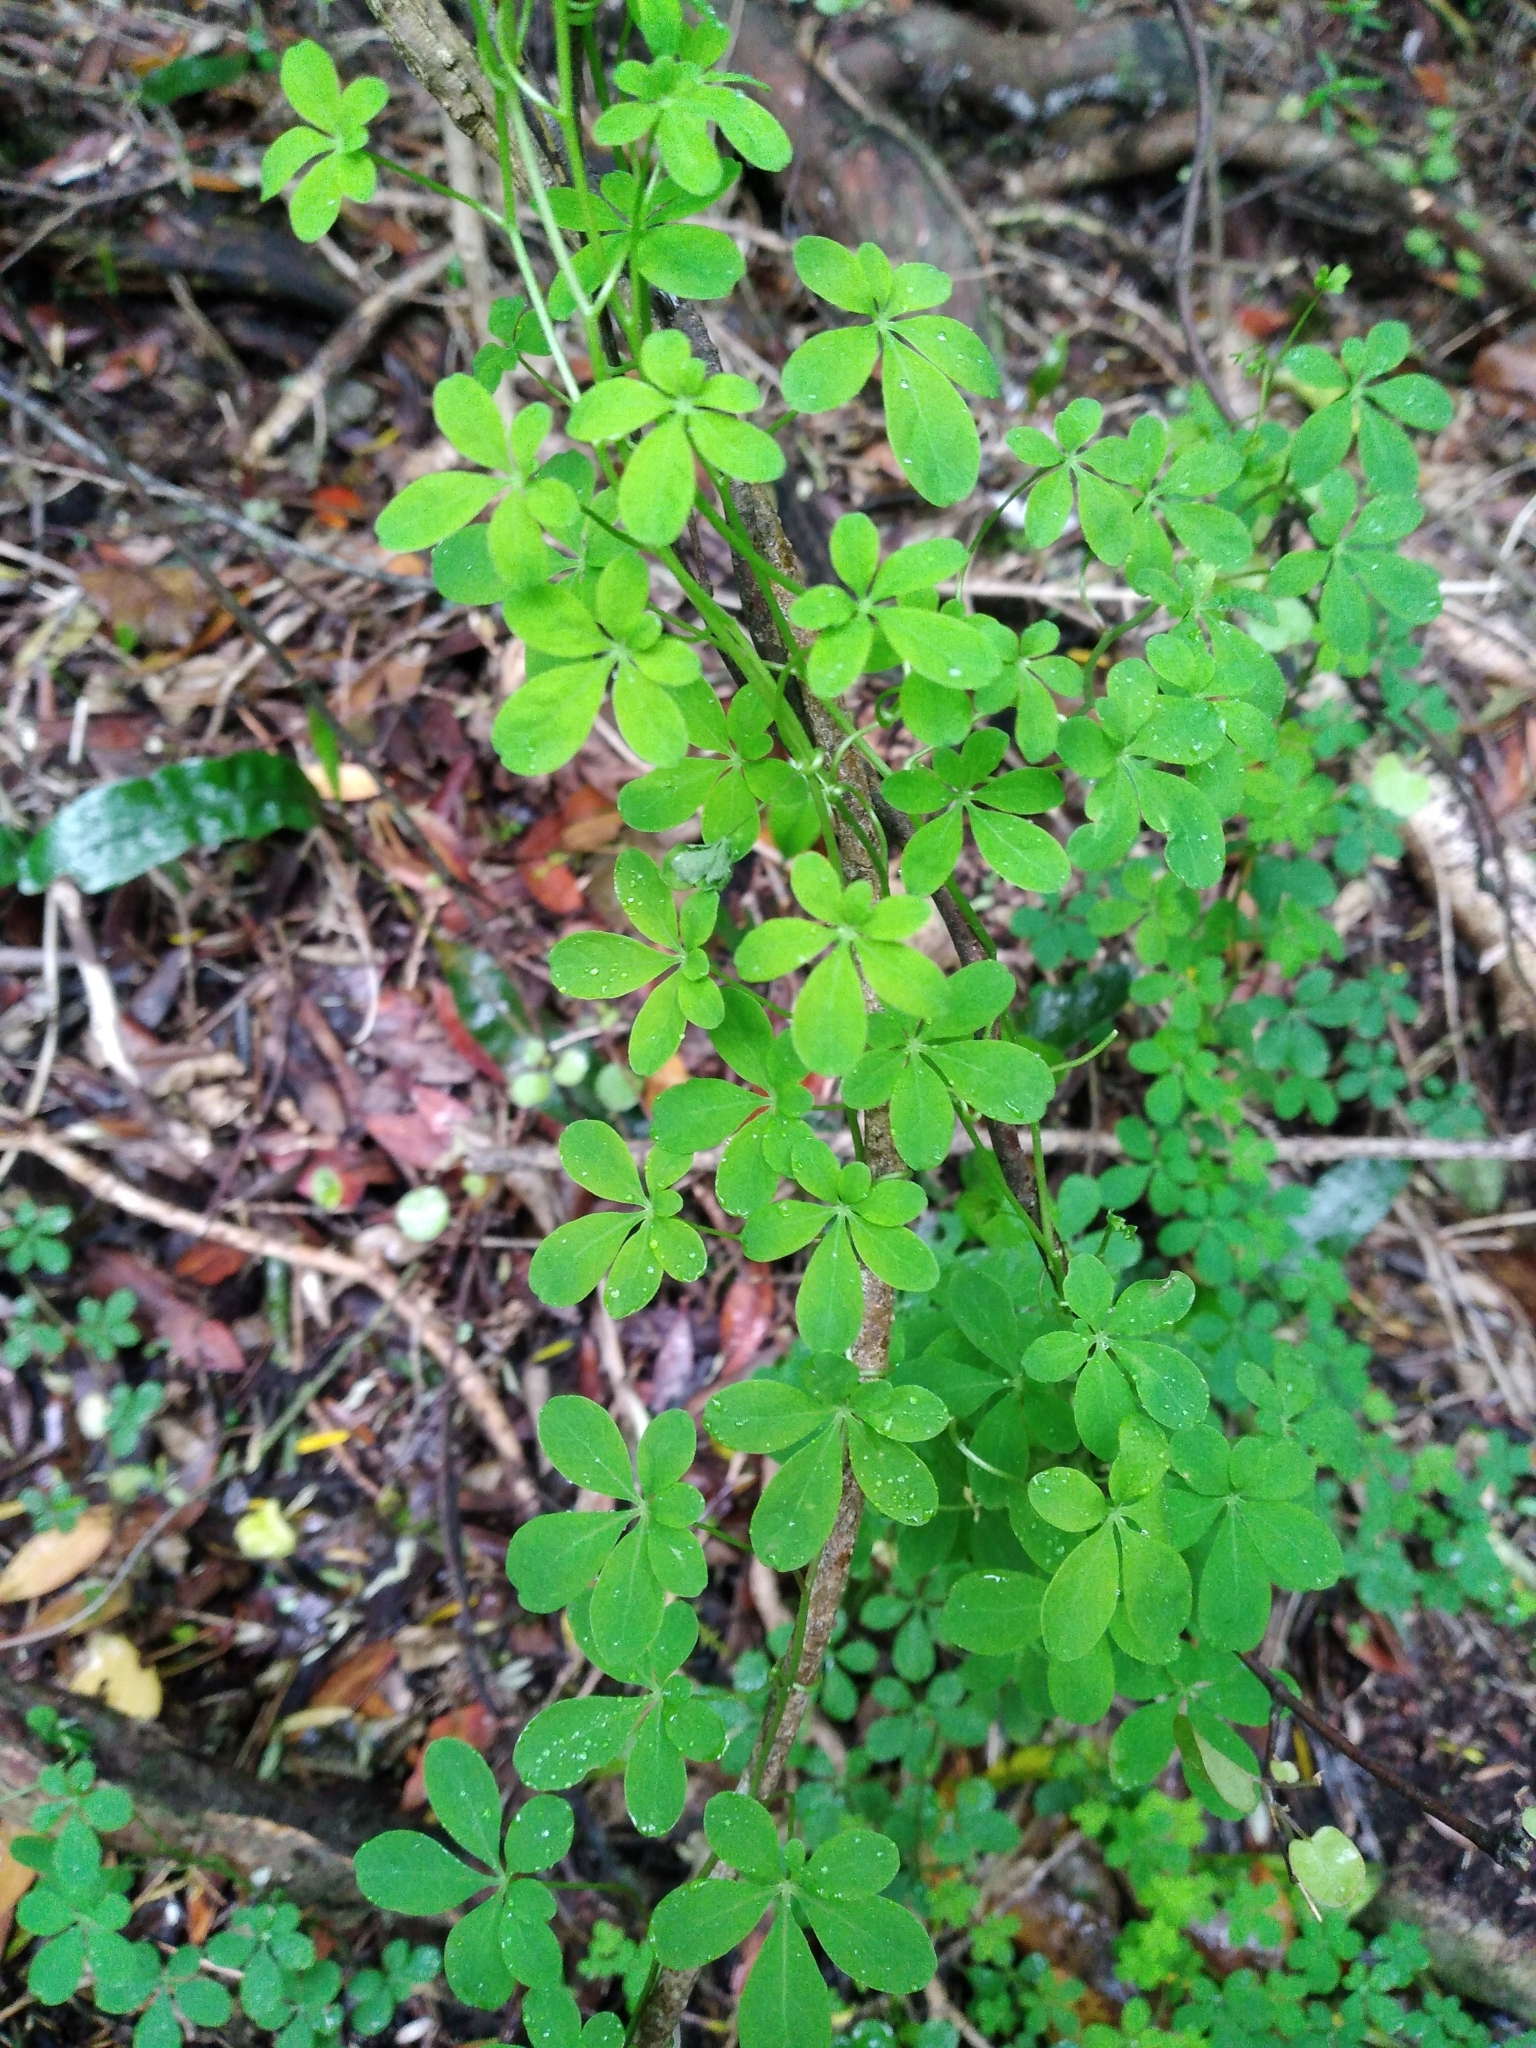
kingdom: Plantae
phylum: Tracheophyta
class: Magnoliopsida
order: Brassicales
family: Tropaeolaceae
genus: Tropaeolum
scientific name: Tropaeolum speciosum
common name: Flame nasturtium
